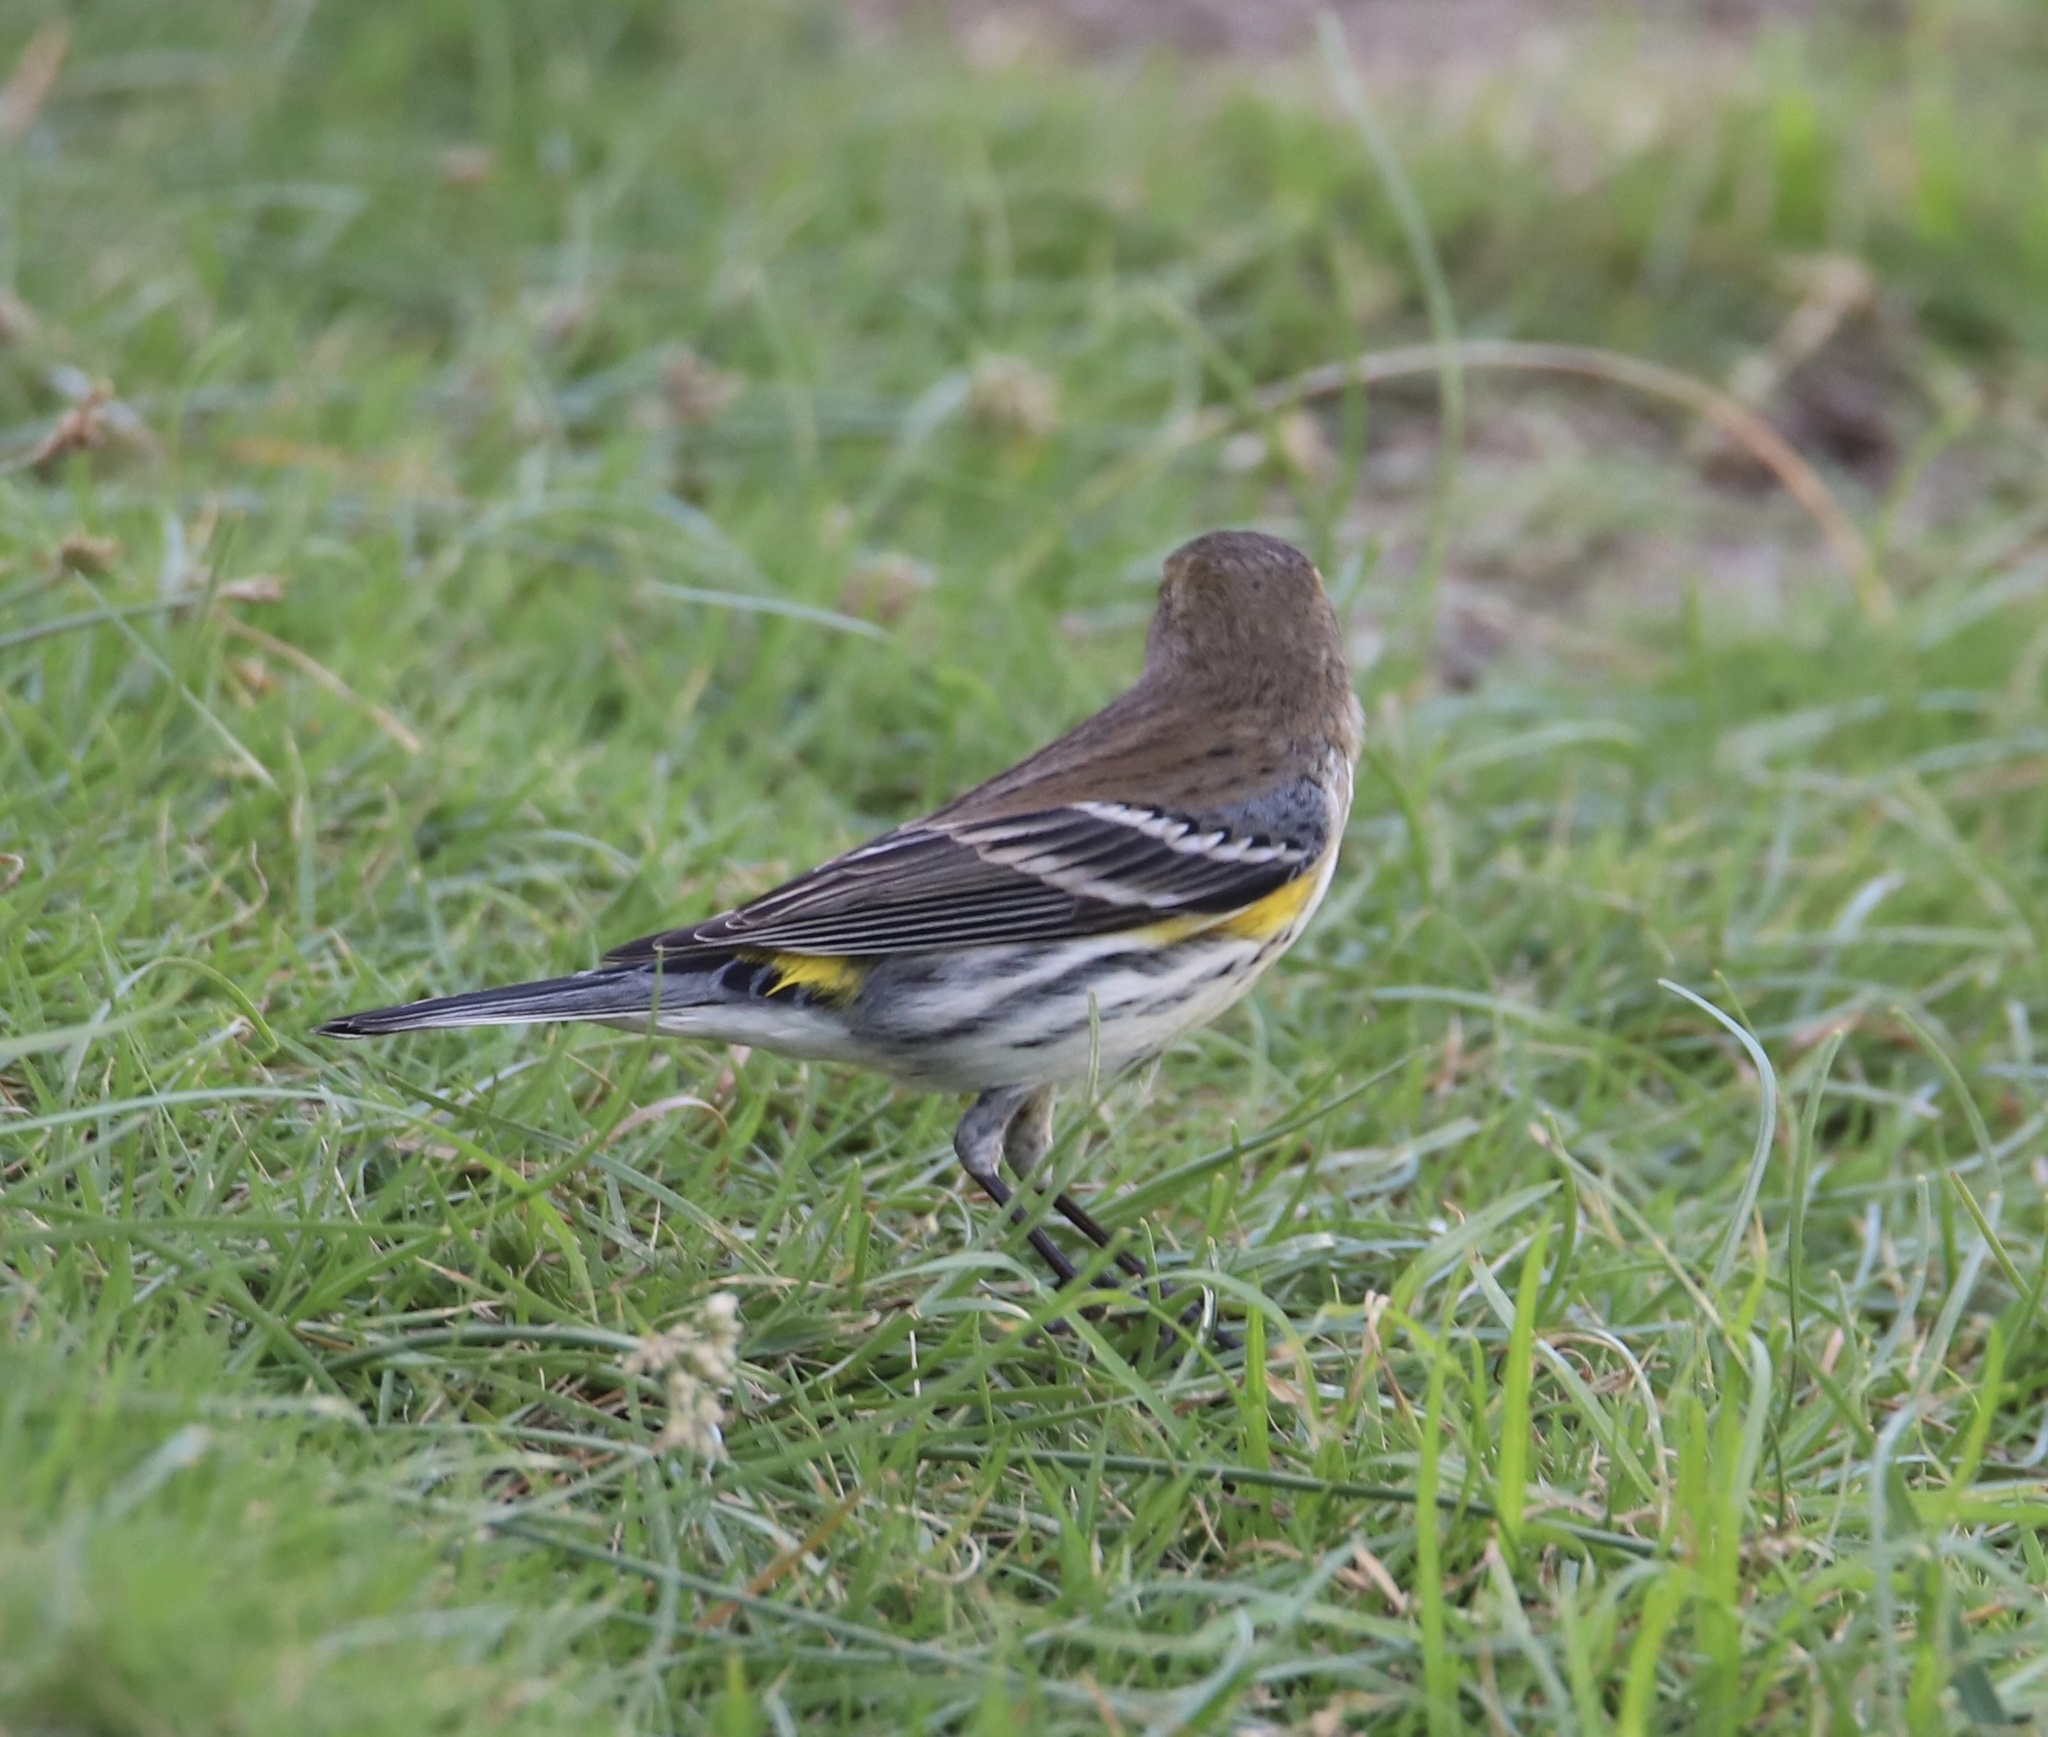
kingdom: Animalia
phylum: Chordata
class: Aves
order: Passeriformes
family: Parulidae
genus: Setophaga
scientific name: Setophaga coronata
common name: Myrtle warbler
